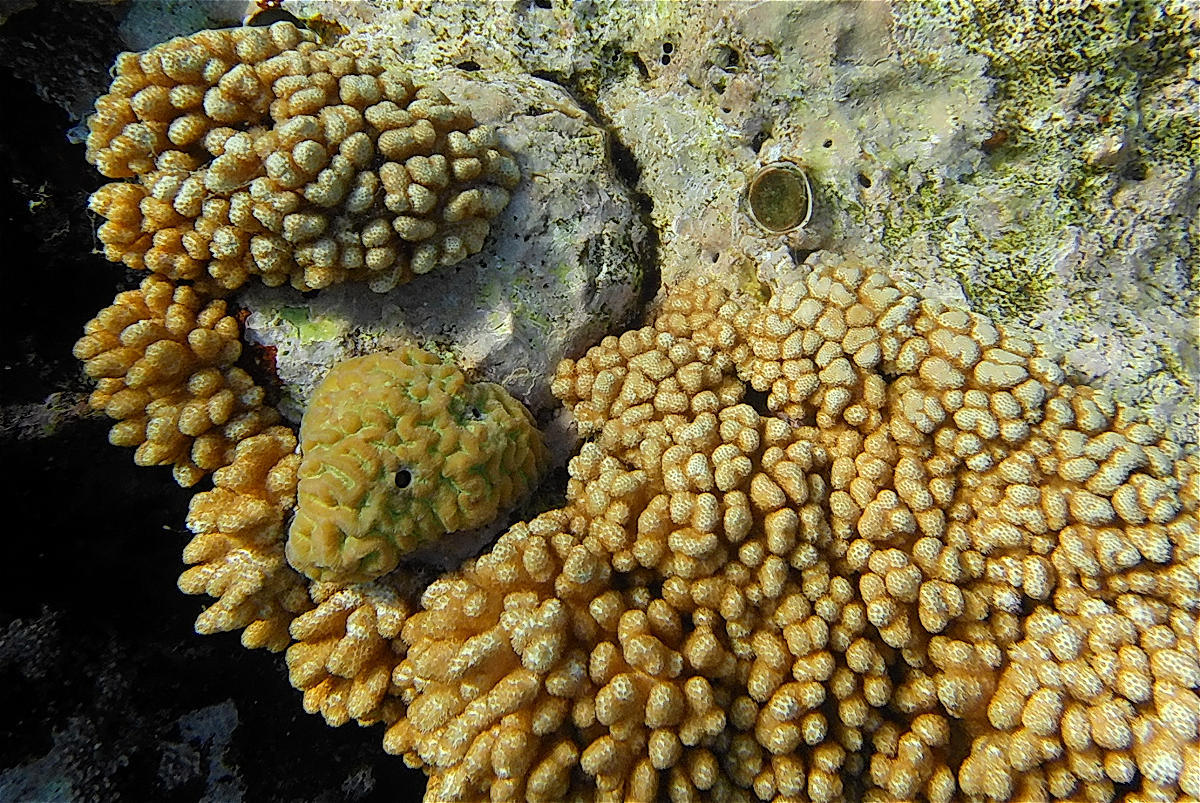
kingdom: Animalia
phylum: Cnidaria
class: Anthozoa
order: Malacalcyonacea
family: Cladiellidae
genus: Cladiella
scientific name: Cladiella brachyclados
